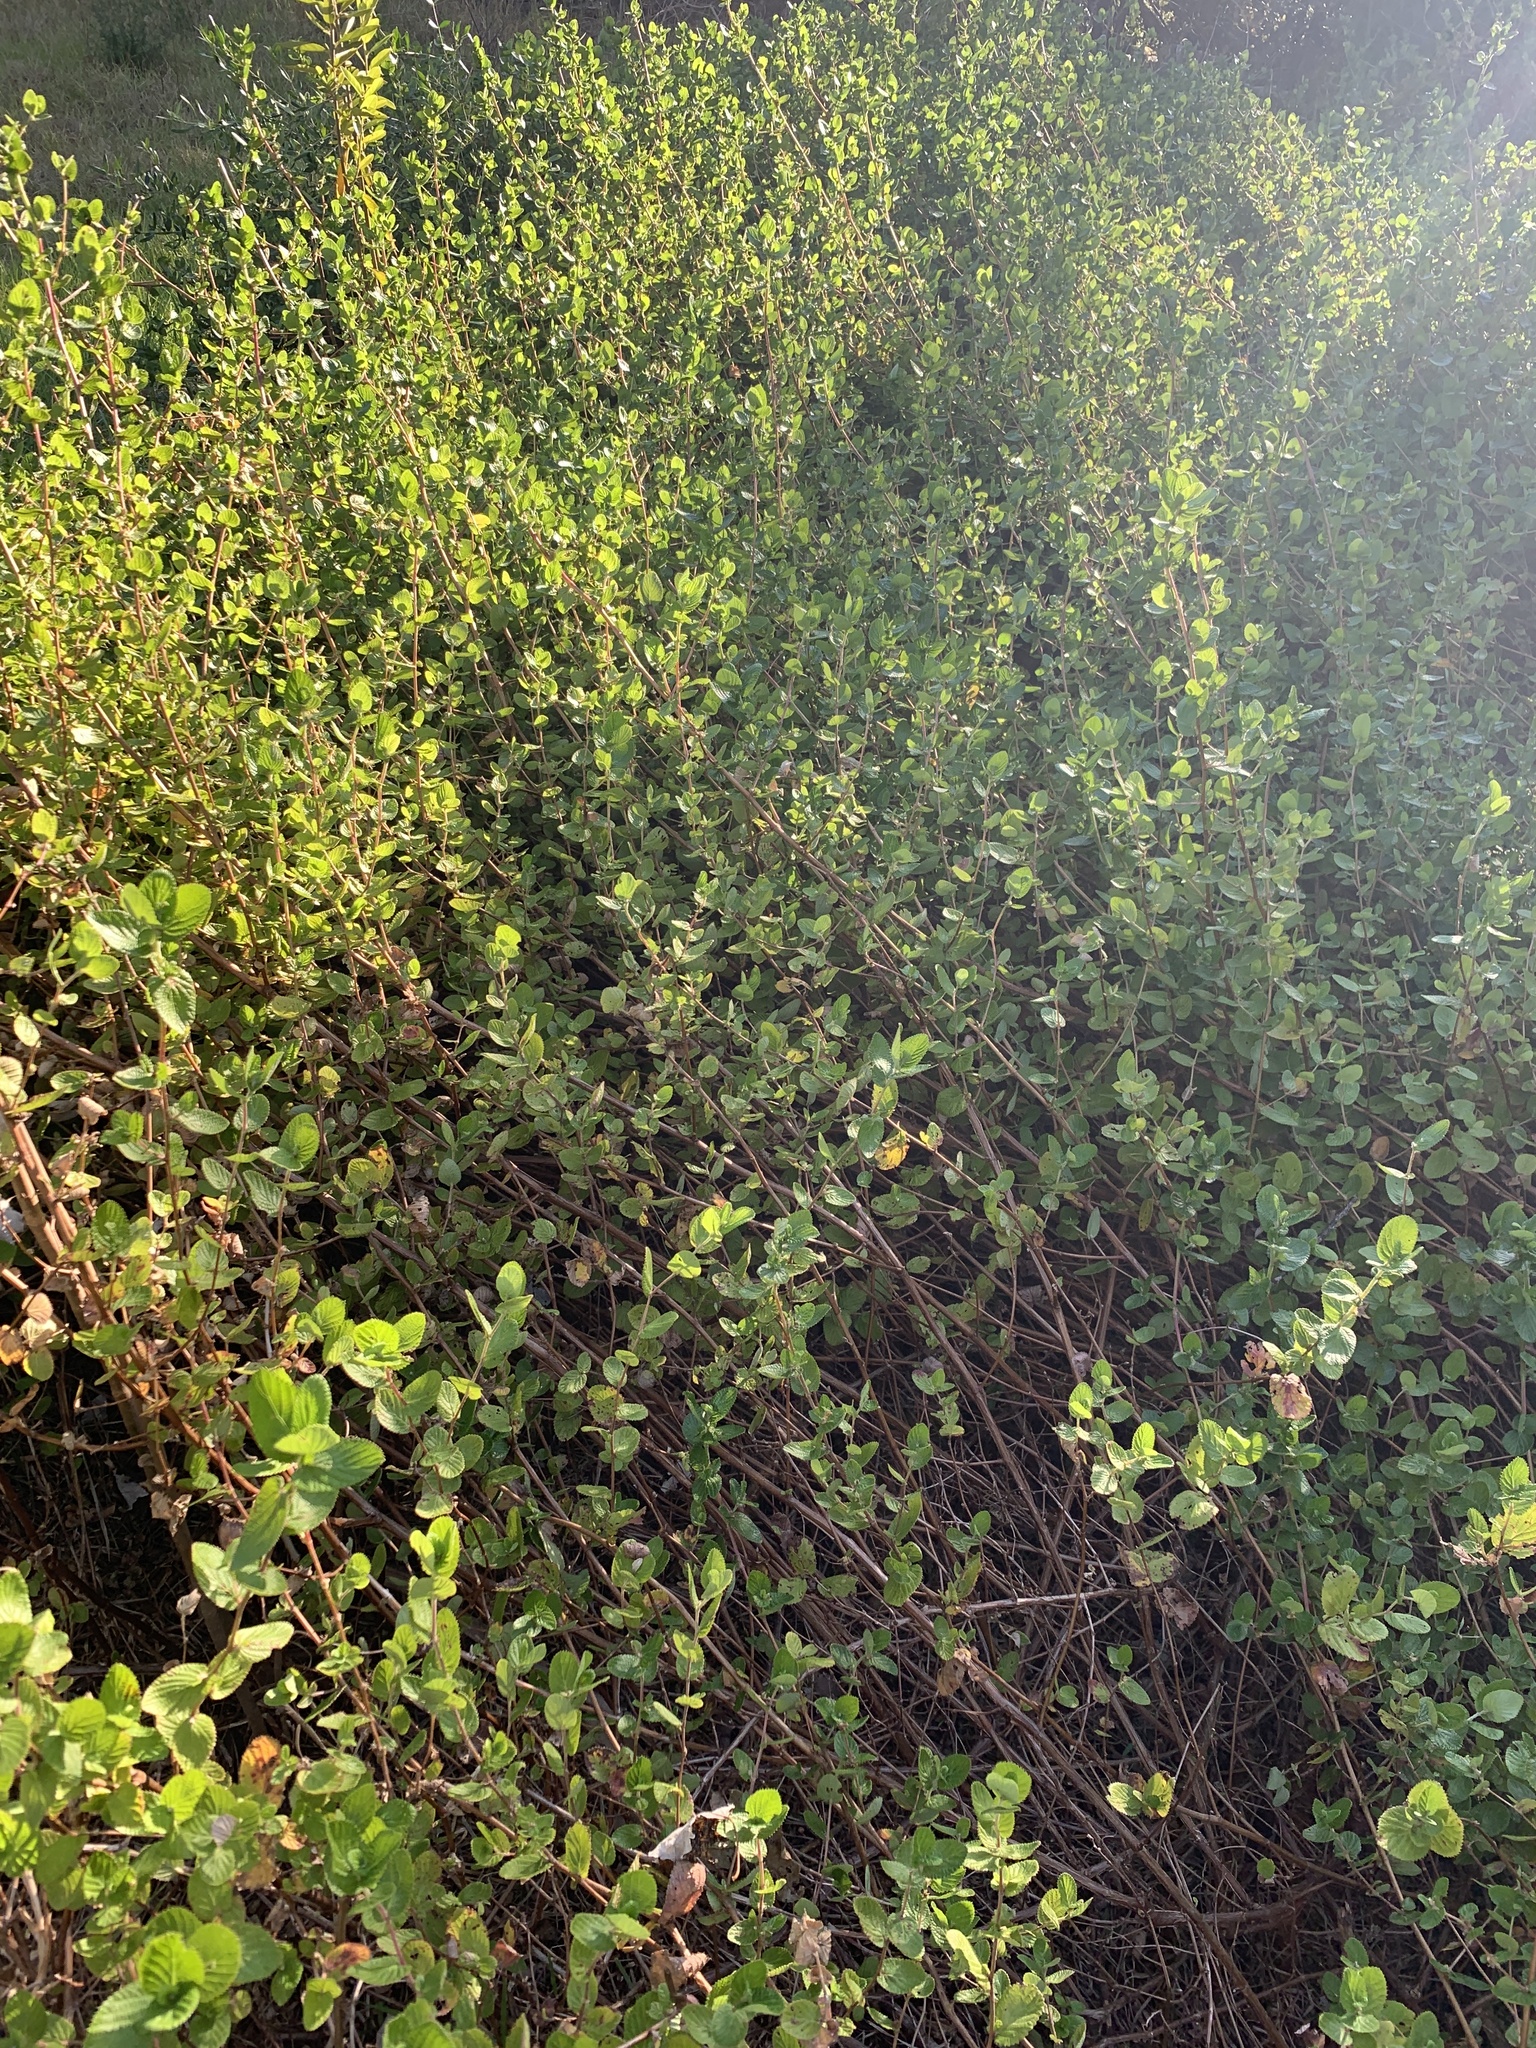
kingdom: Plantae
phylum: Tracheophyta
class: Magnoliopsida
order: Rosales
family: Rosaceae
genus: Cliffortia
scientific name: Cliffortia odorata
